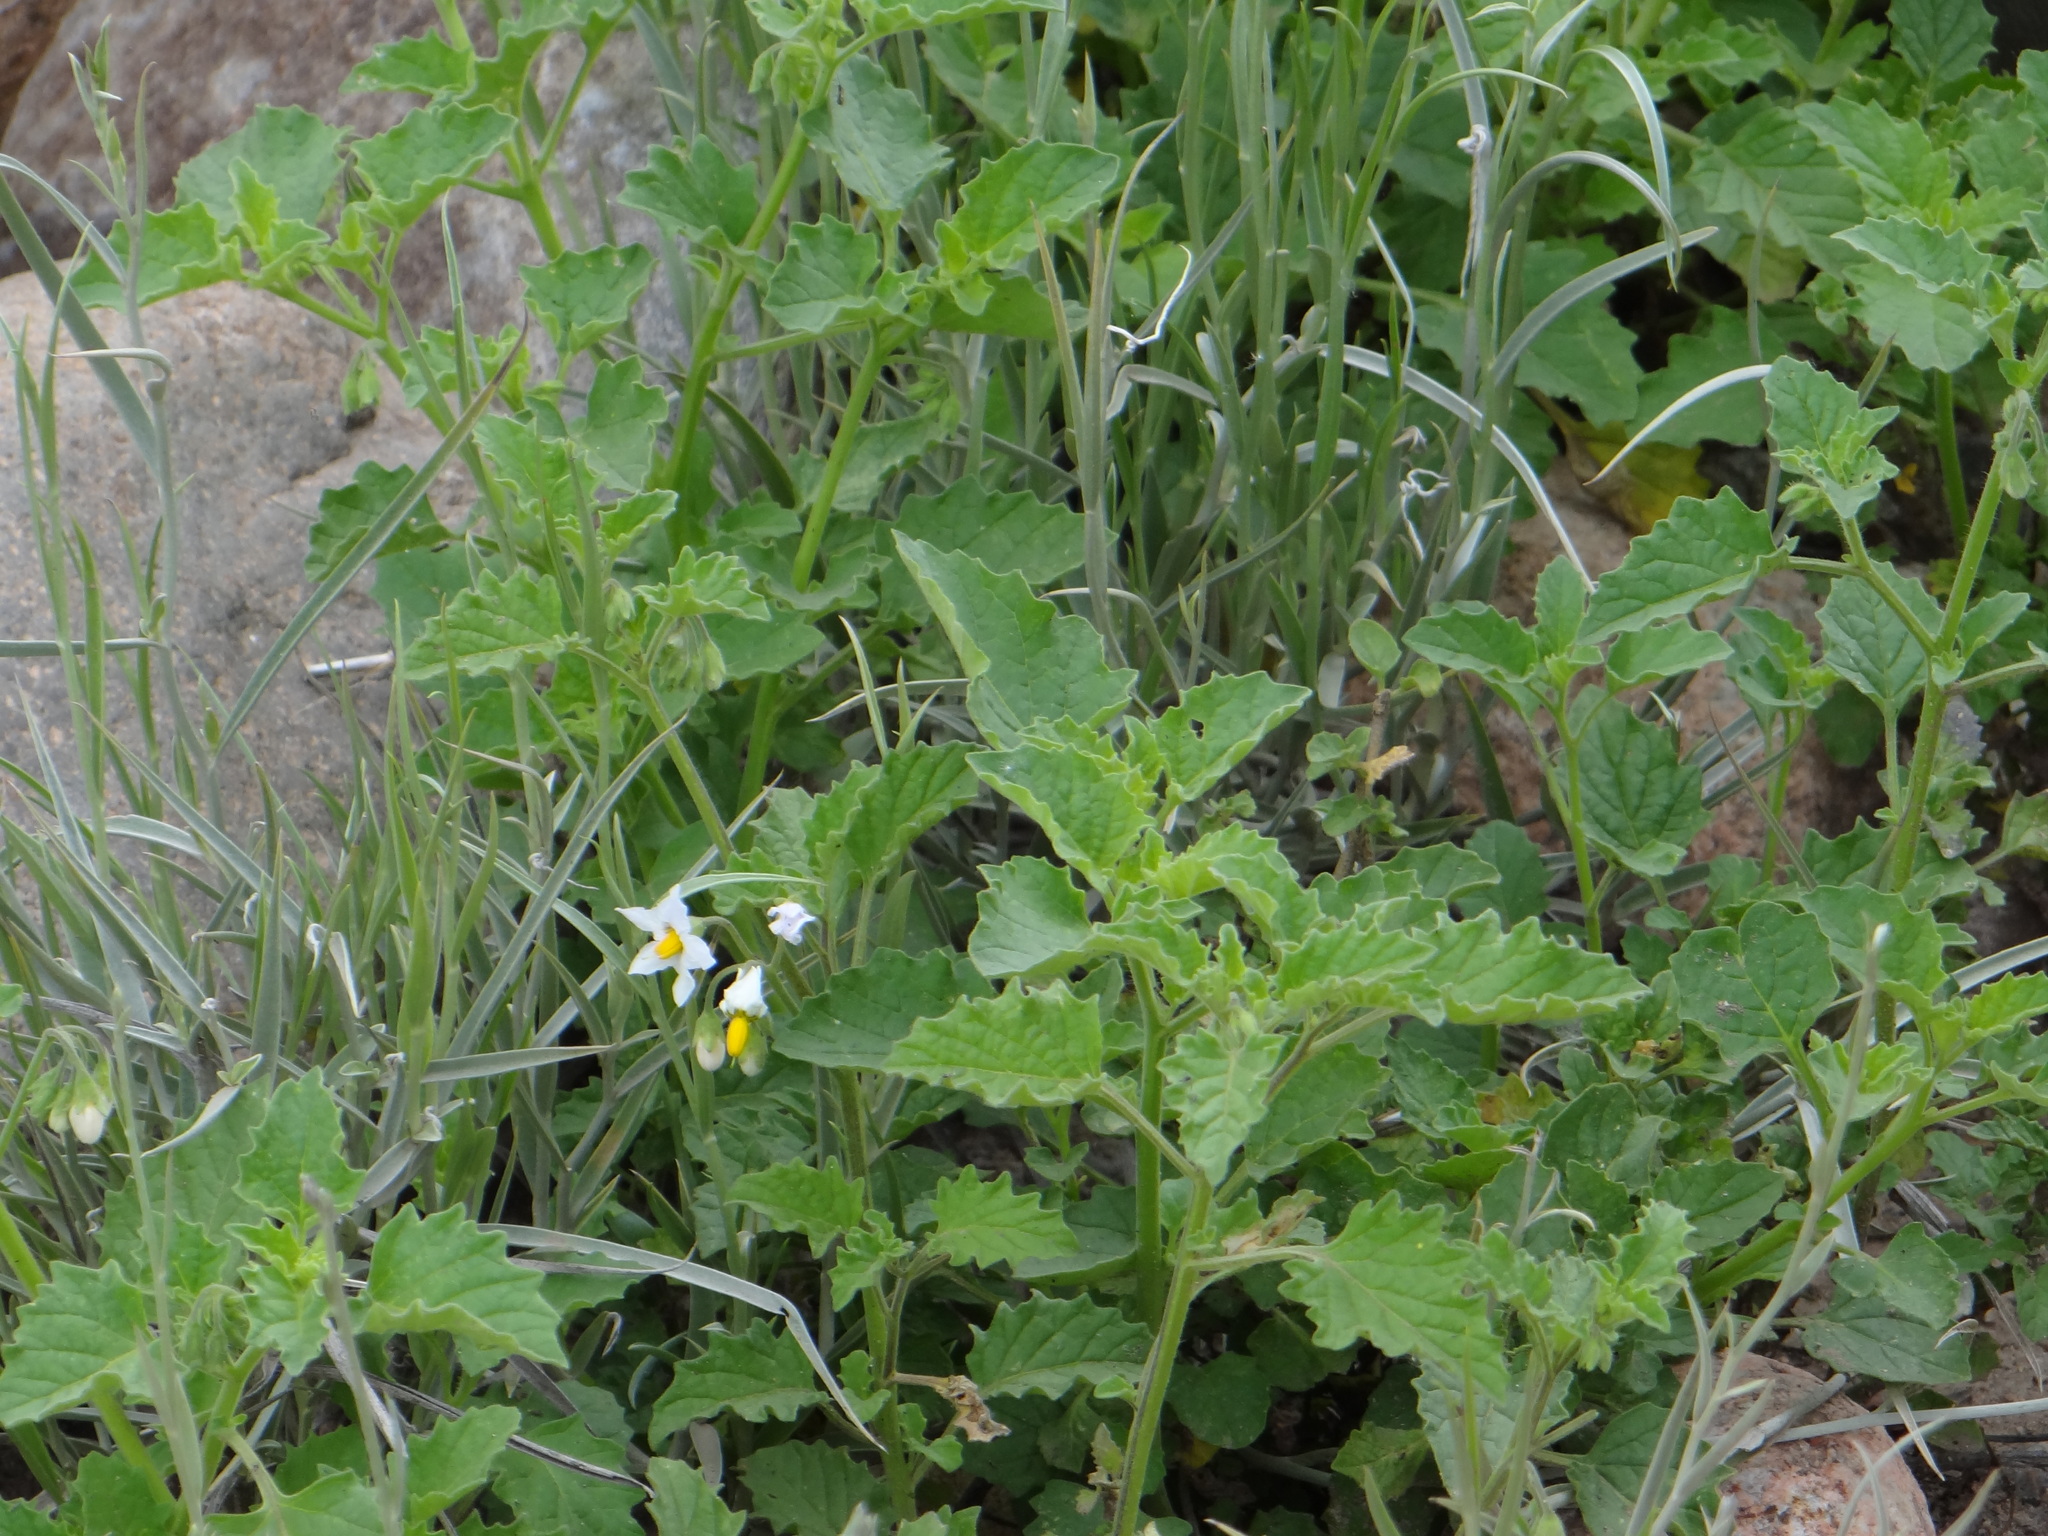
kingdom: Plantae
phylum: Tracheophyta
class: Magnoliopsida
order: Solanales
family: Solanaceae
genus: Solanum
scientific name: Solanum tweedianum
